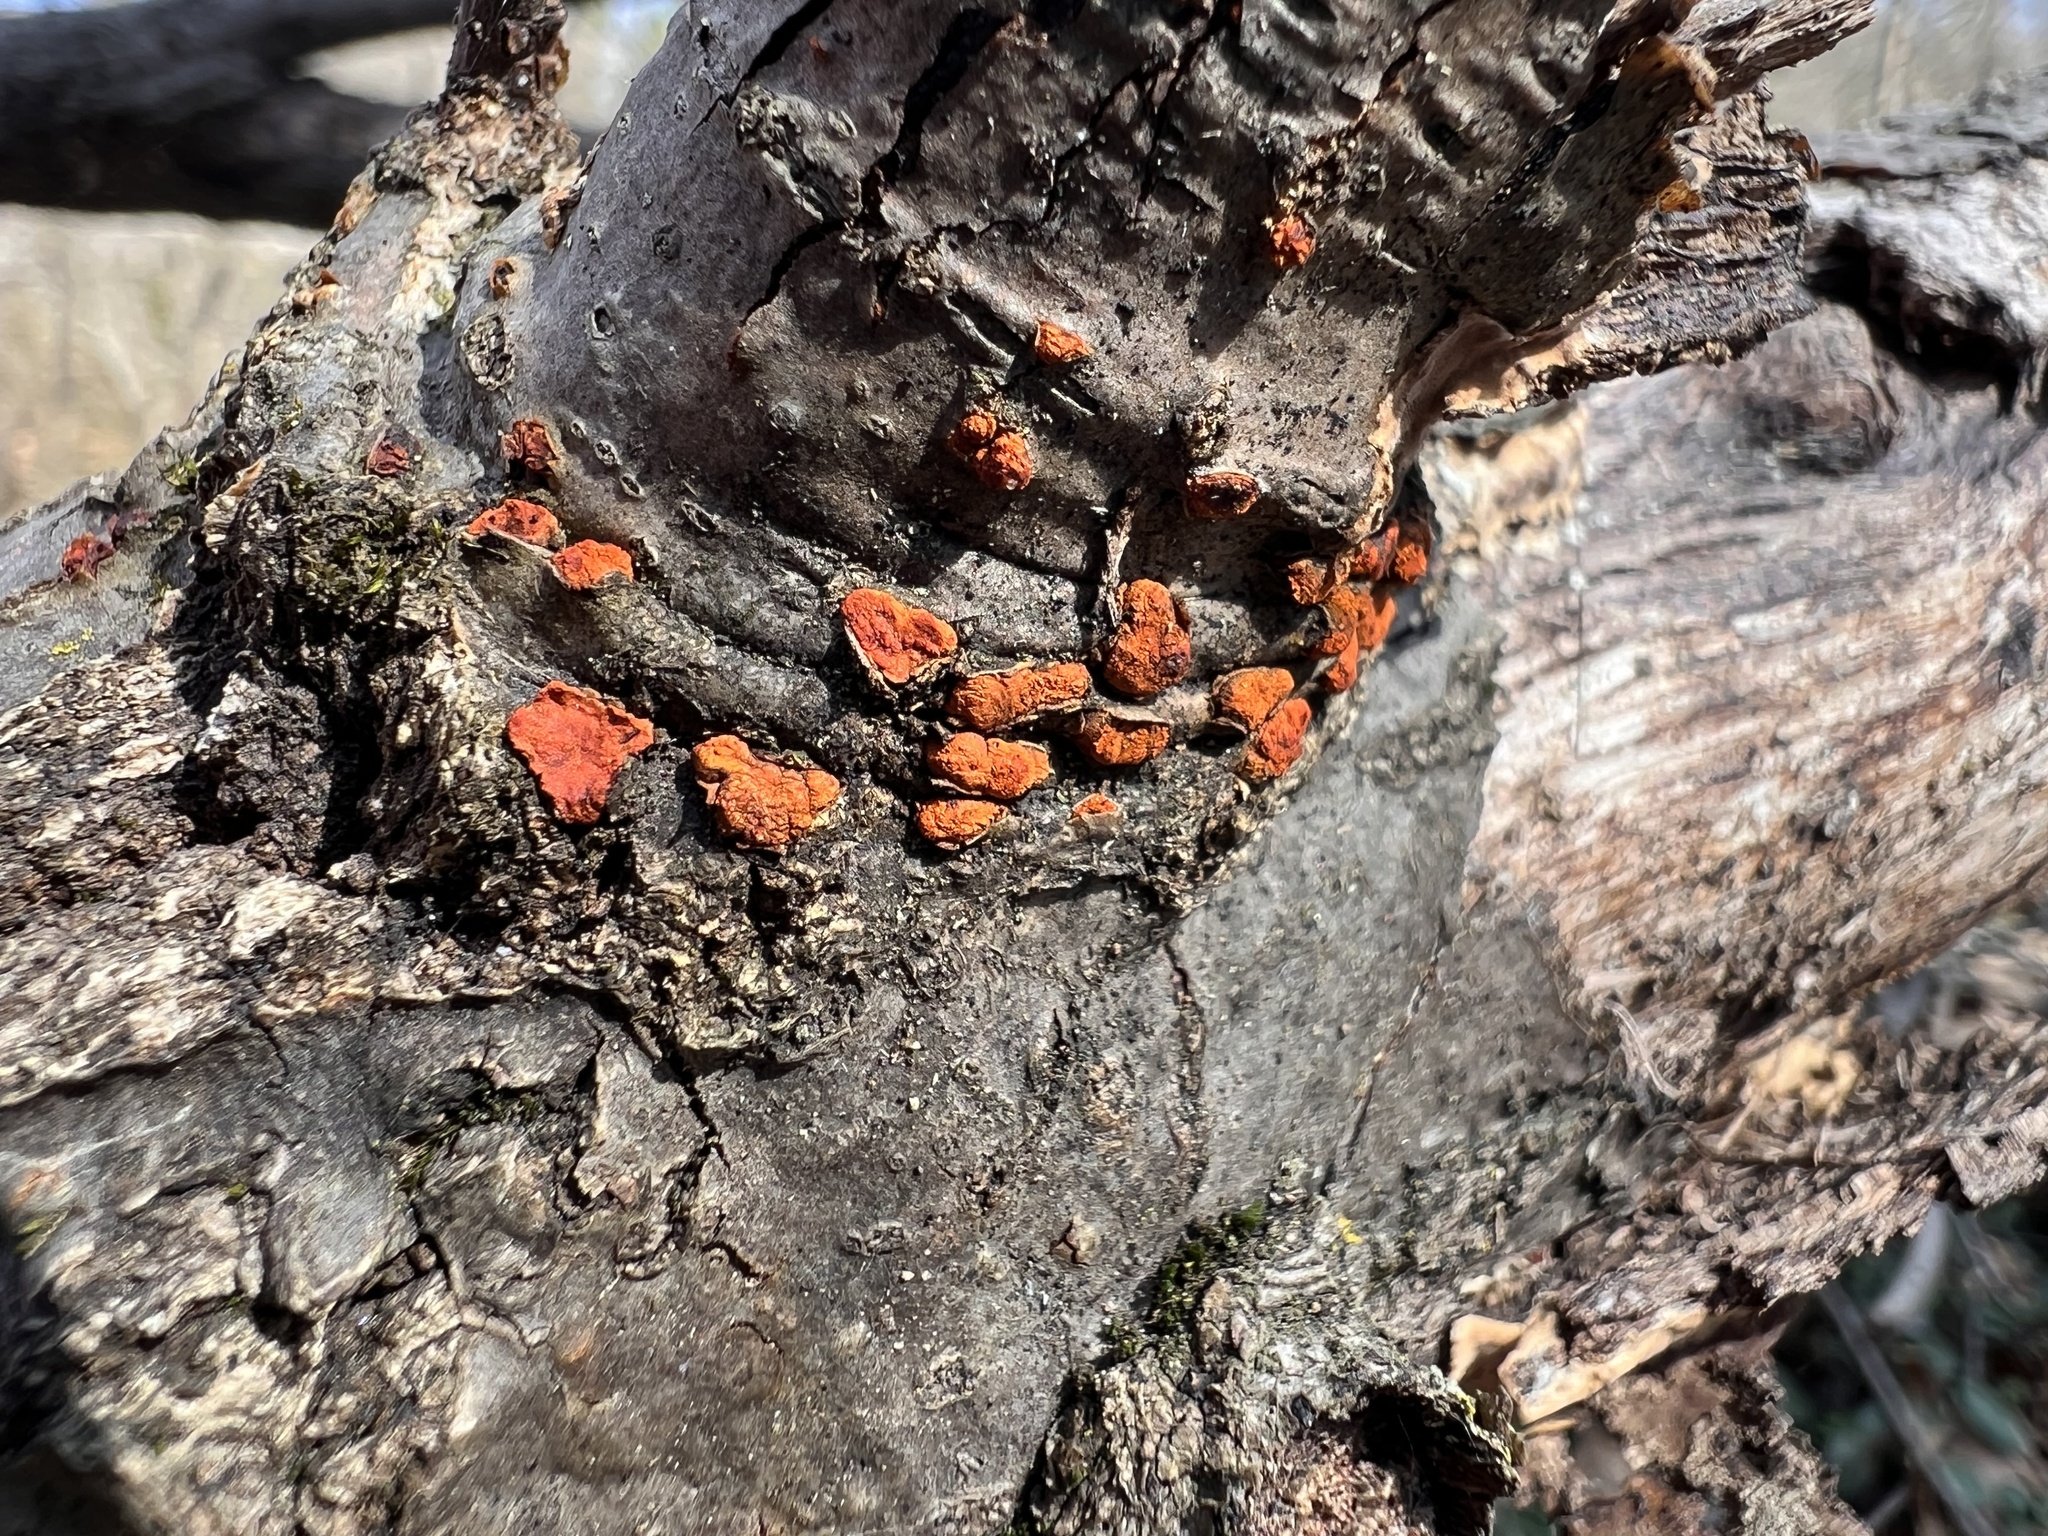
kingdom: Fungi
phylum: Ascomycota
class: Sordariomycetes
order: Diaporthales
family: Cryphonectriaceae
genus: Amphilogia
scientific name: Amphilogia gyrosa
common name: Orange hobnail canker
